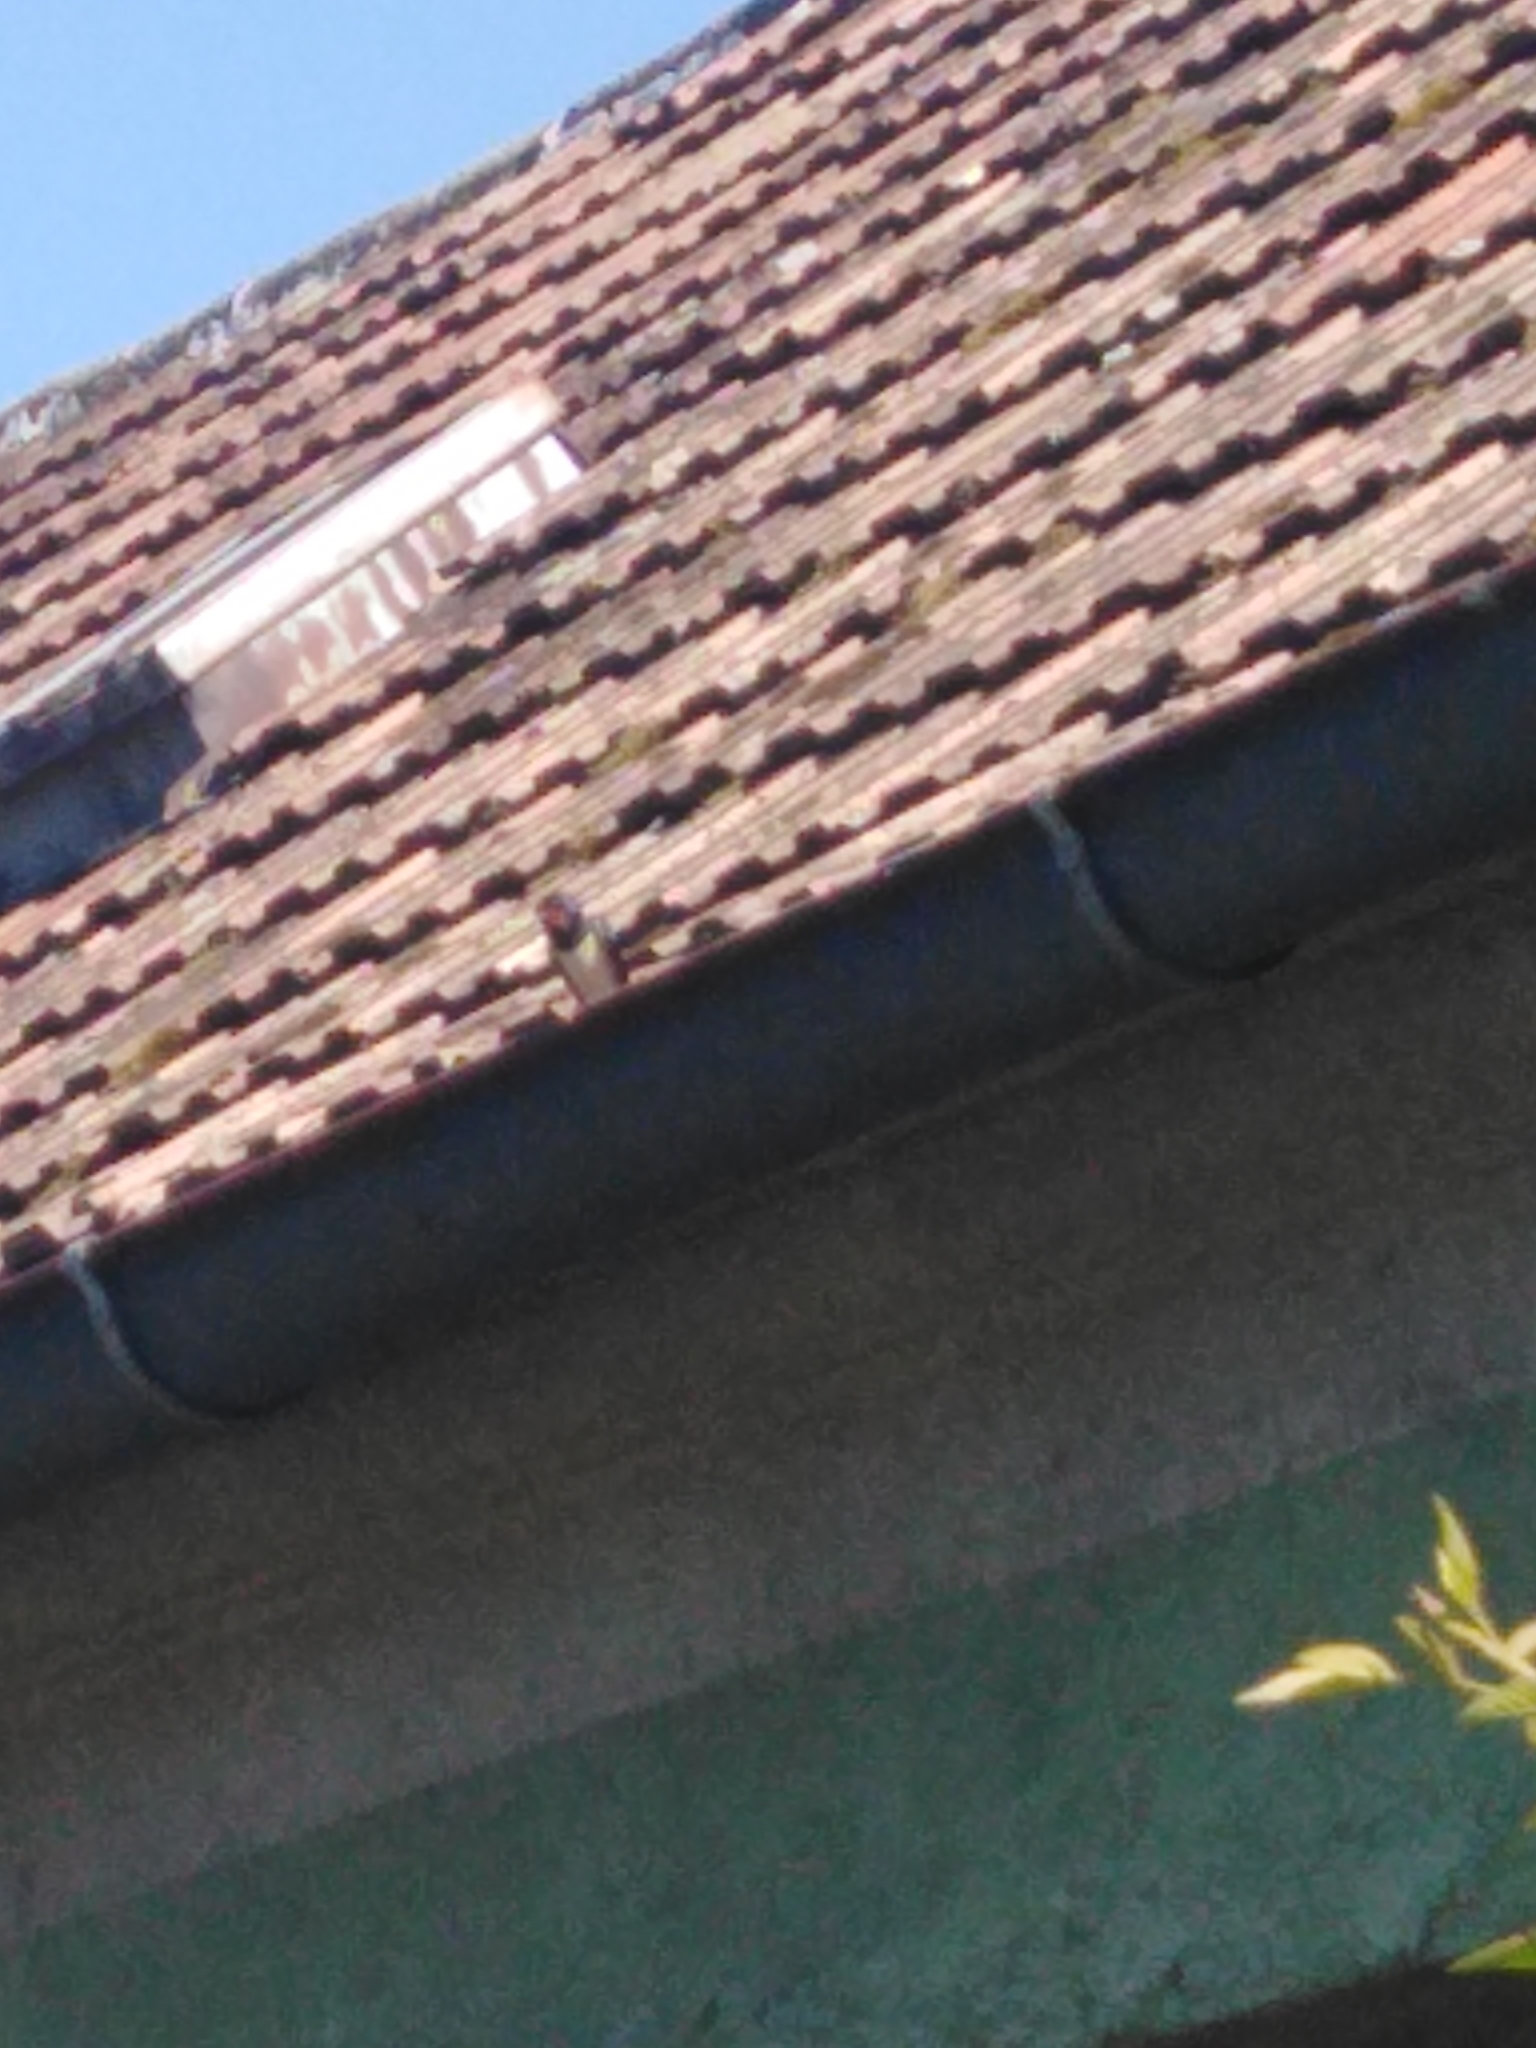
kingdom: Animalia
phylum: Chordata
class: Aves
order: Passeriformes
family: Hirundinidae
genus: Hirundo
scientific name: Hirundo rustica
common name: Barn swallow
